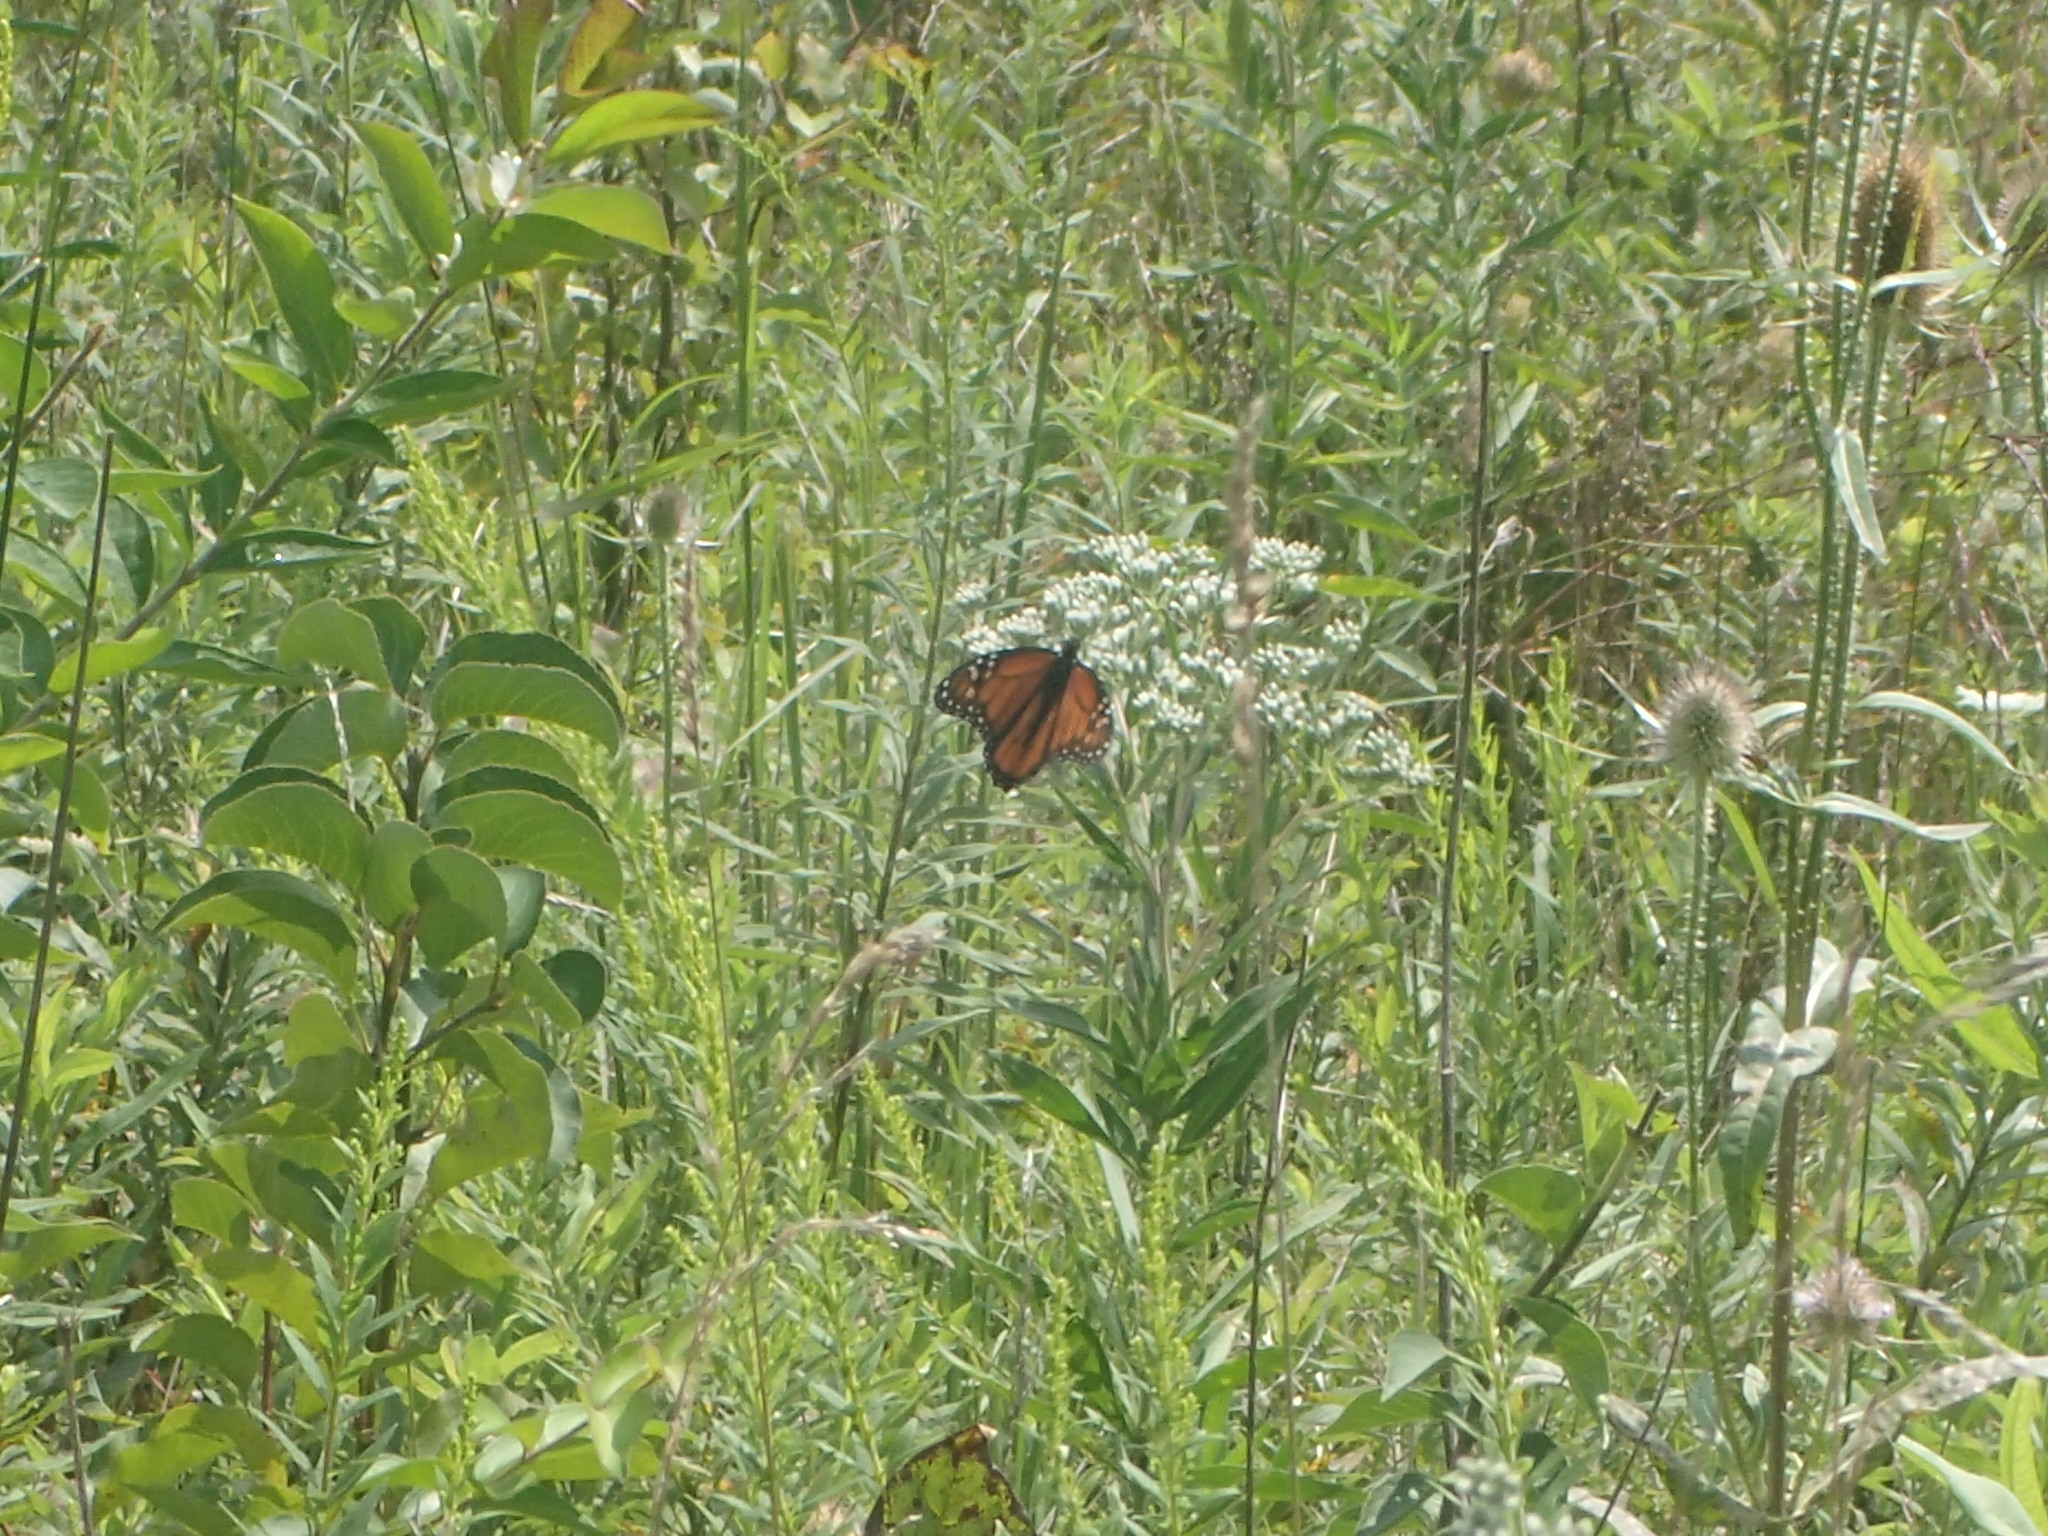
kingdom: Animalia
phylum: Arthropoda
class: Insecta
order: Lepidoptera
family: Nymphalidae
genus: Danaus
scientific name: Danaus plexippus
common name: Monarch
